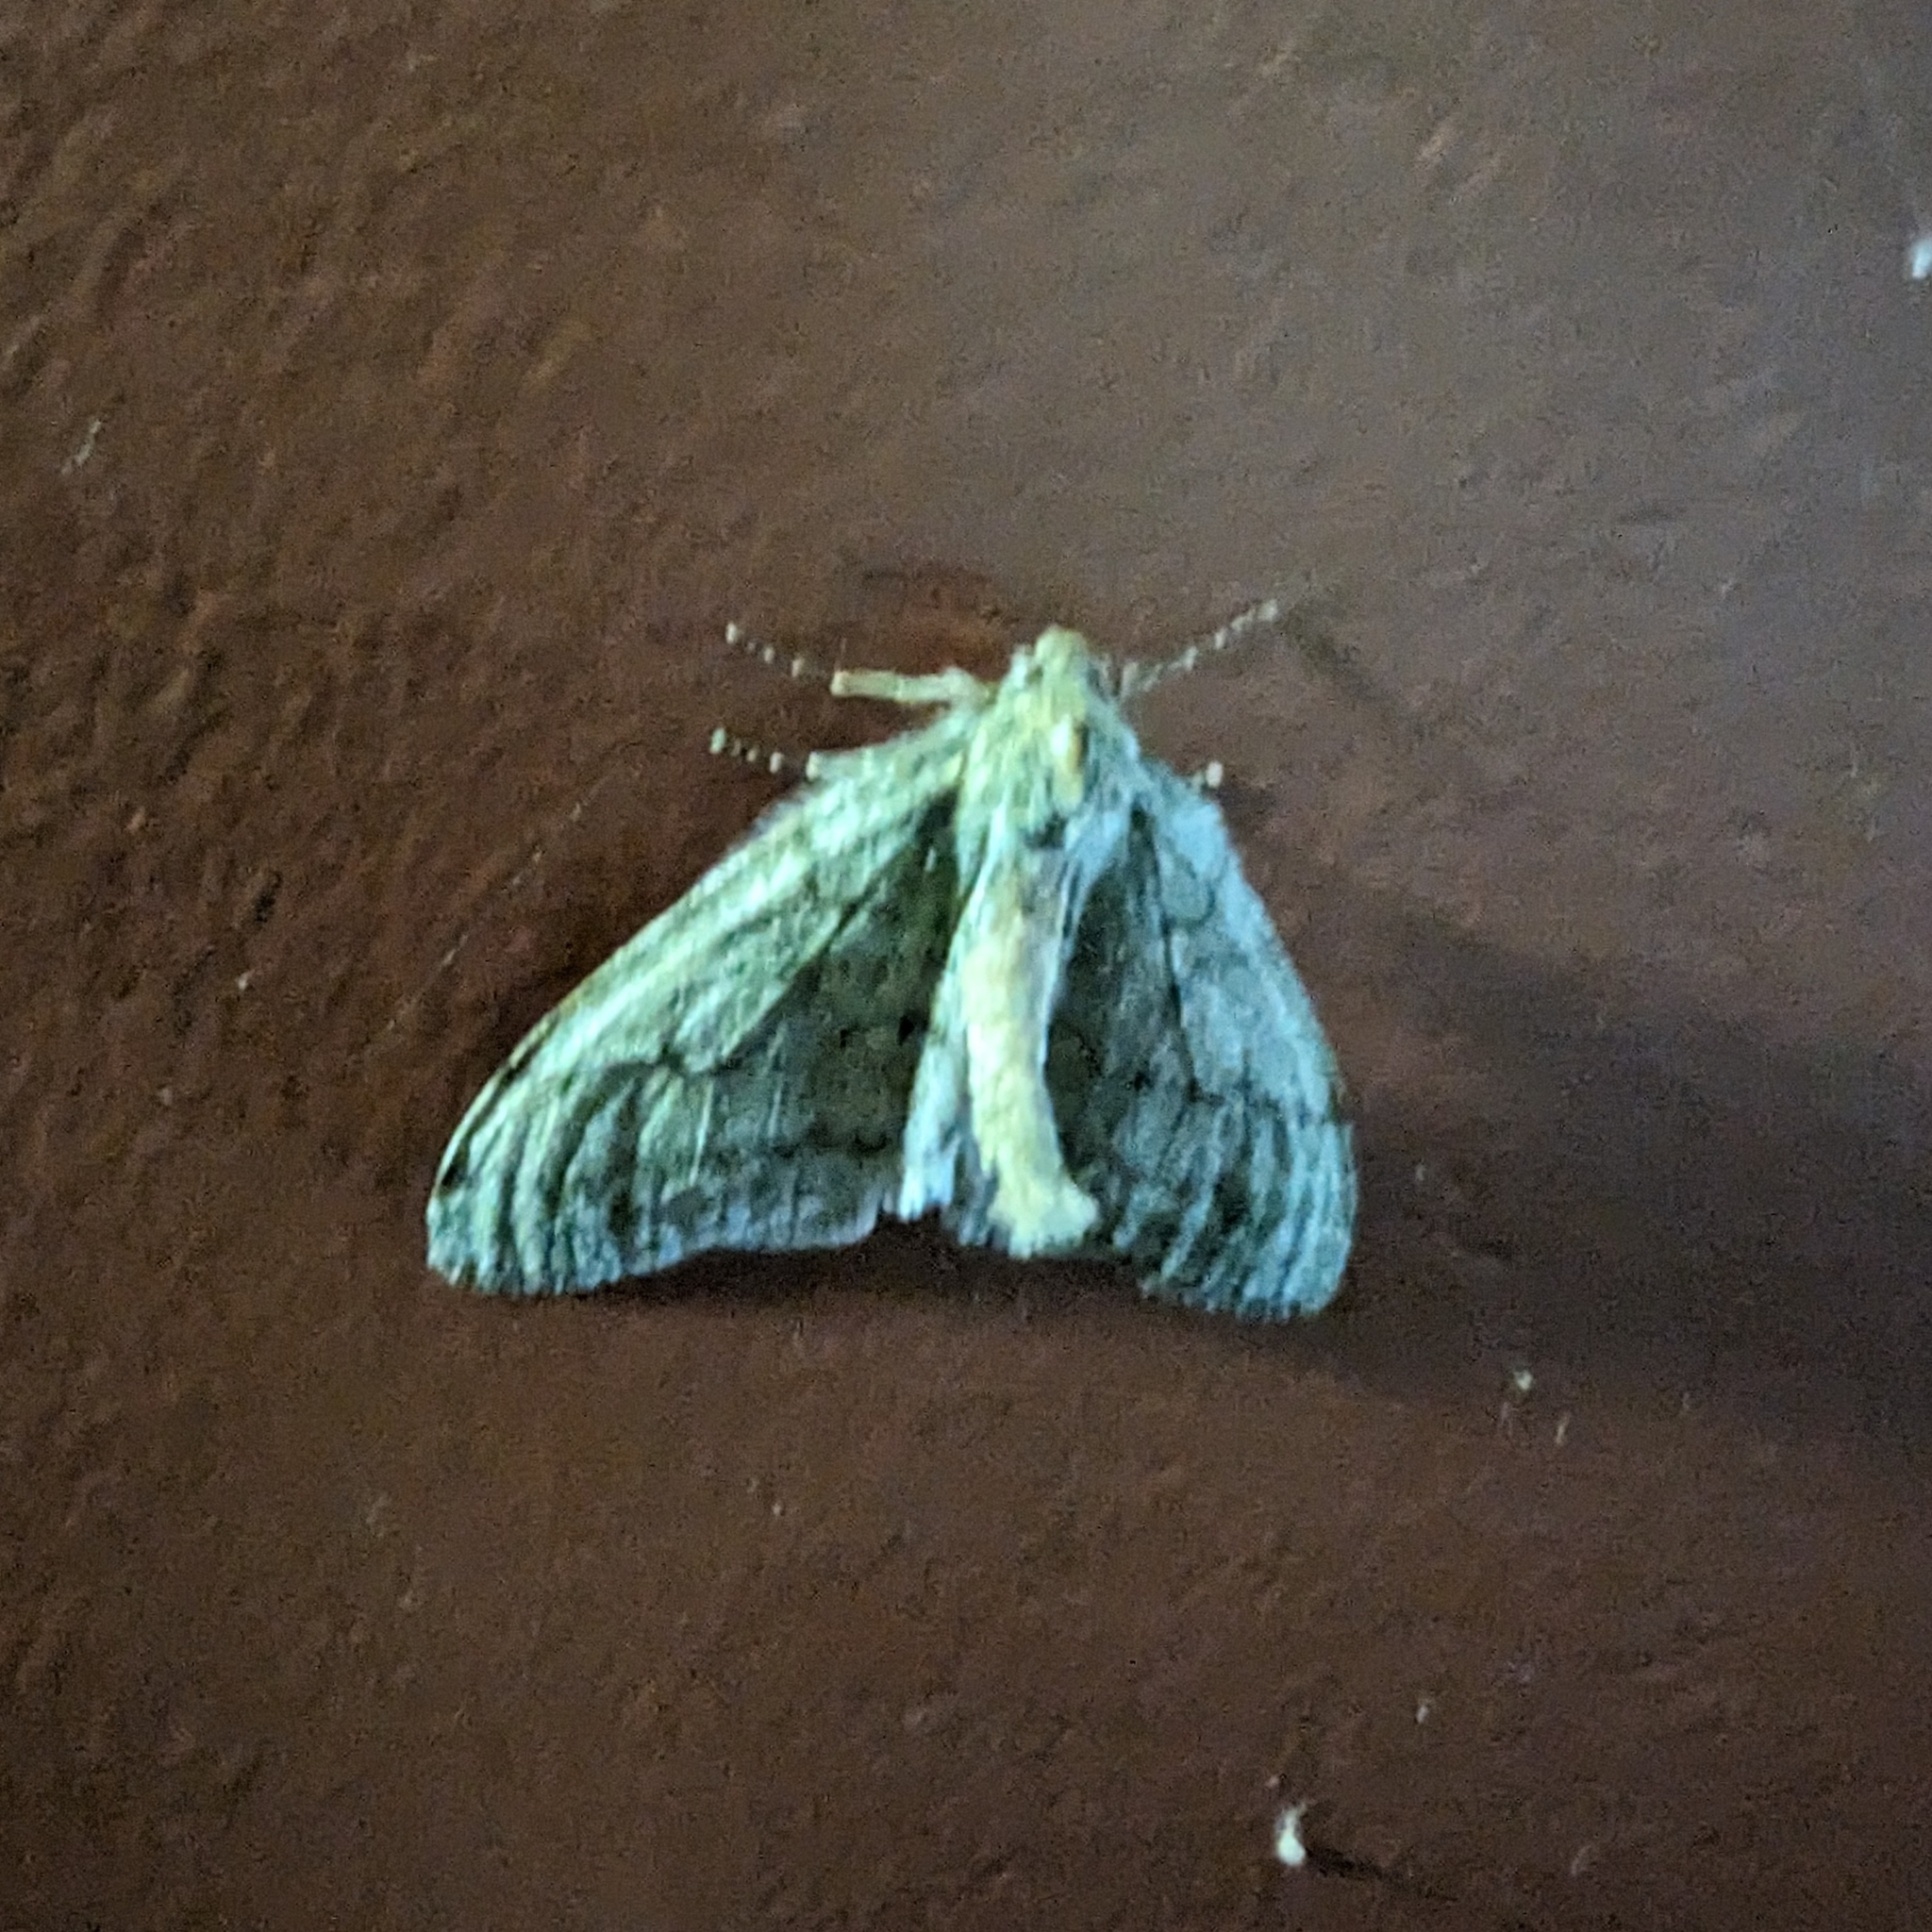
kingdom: Animalia
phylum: Arthropoda
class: Insecta
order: Lepidoptera
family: Geometridae
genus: Phigalia
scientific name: Phigalia plumogeraria
